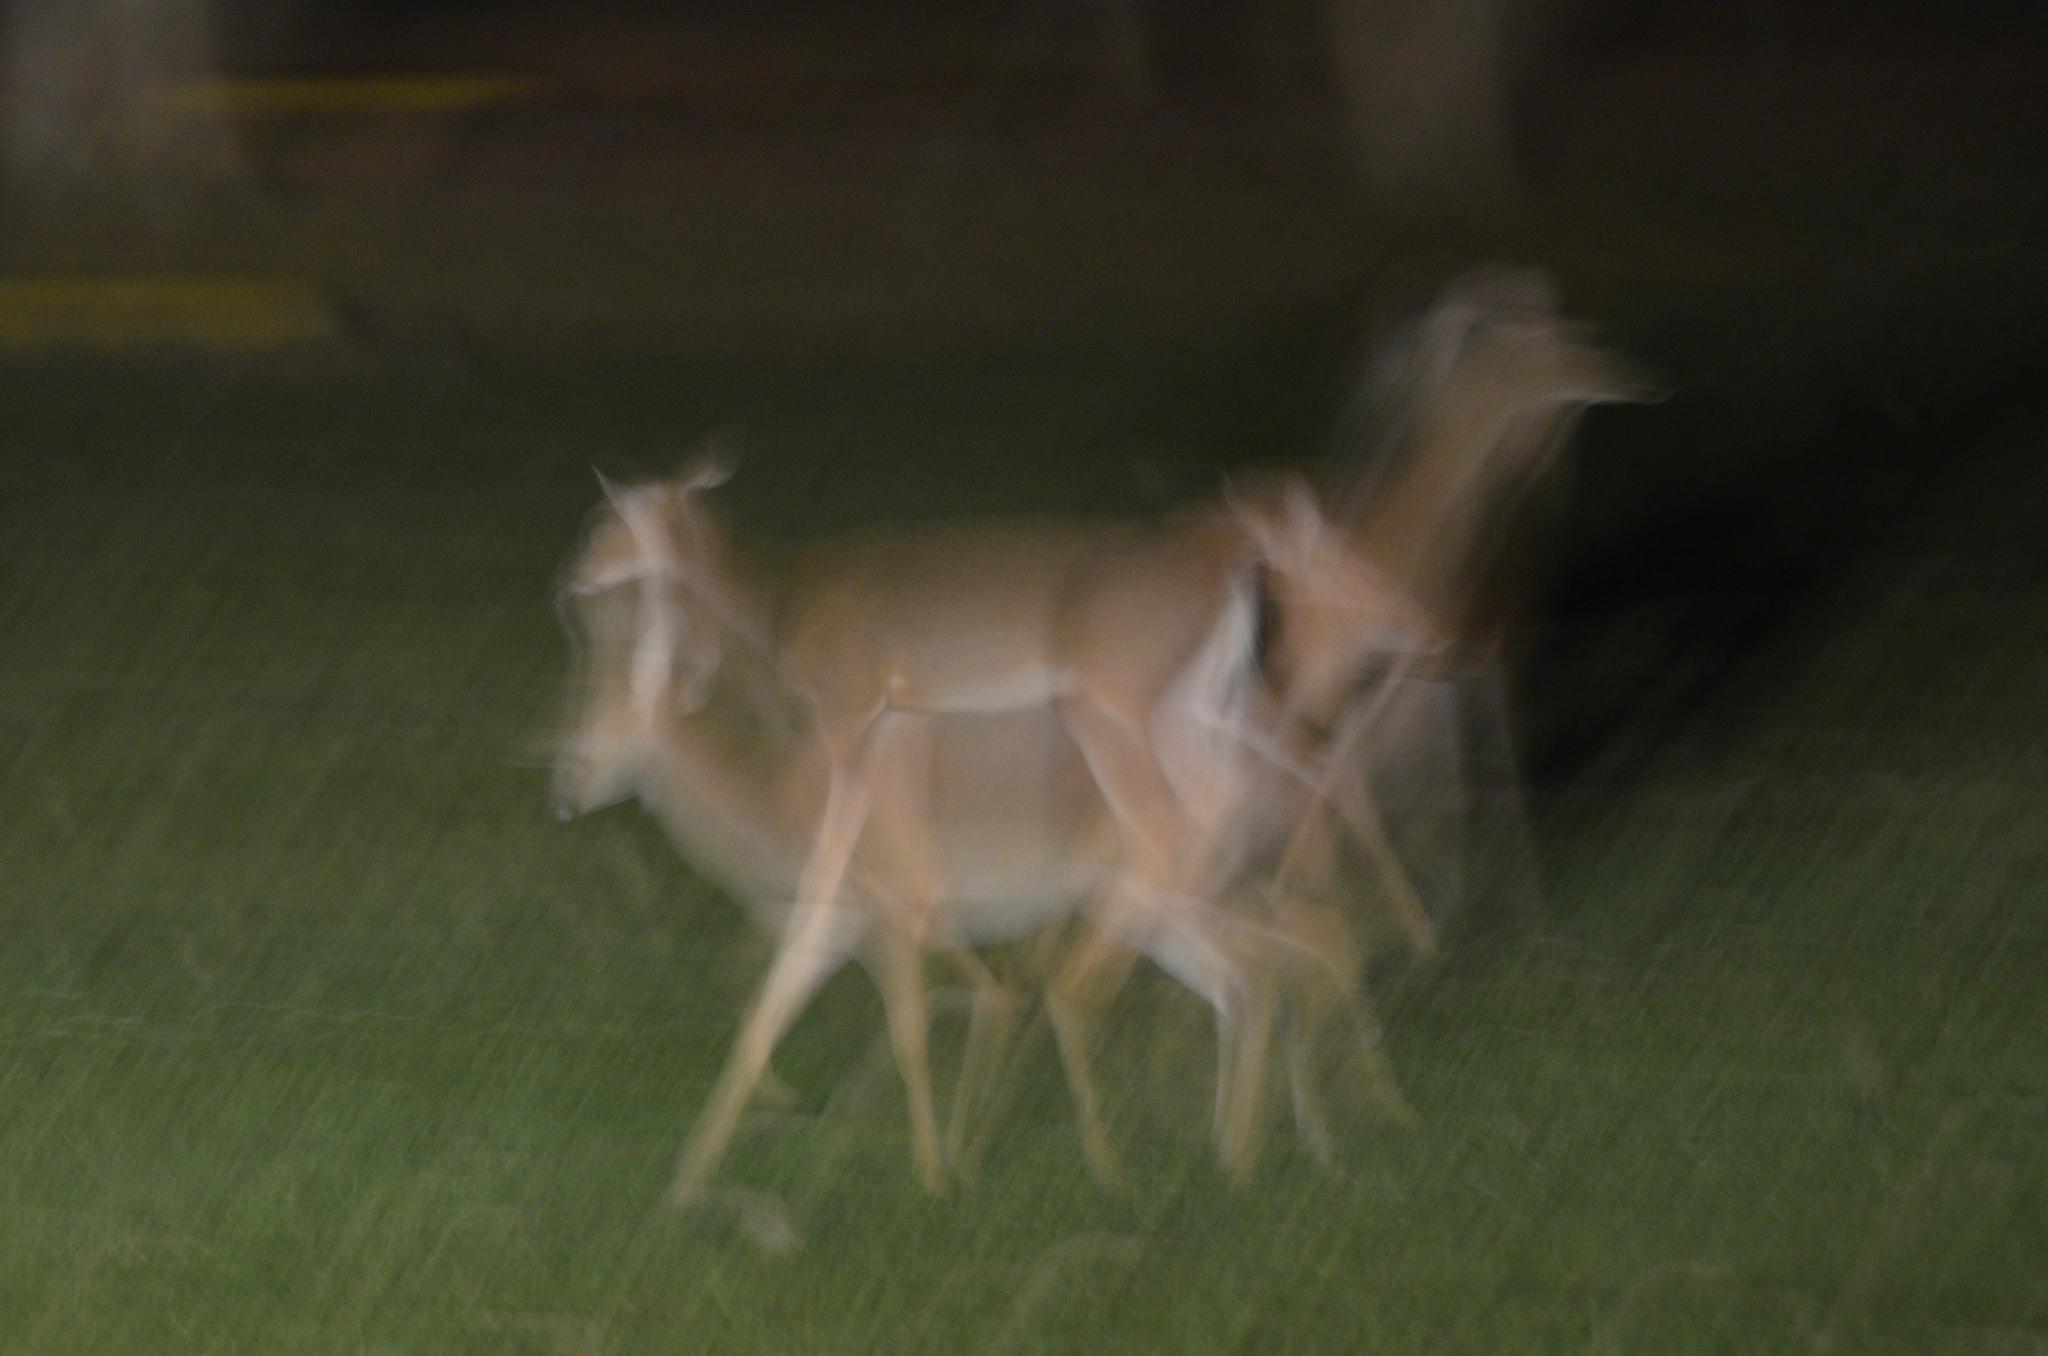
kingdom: Animalia
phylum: Chordata
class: Mammalia
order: Artiodactyla
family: Cervidae
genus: Odocoileus
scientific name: Odocoileus virginianus
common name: White-tailed deer
